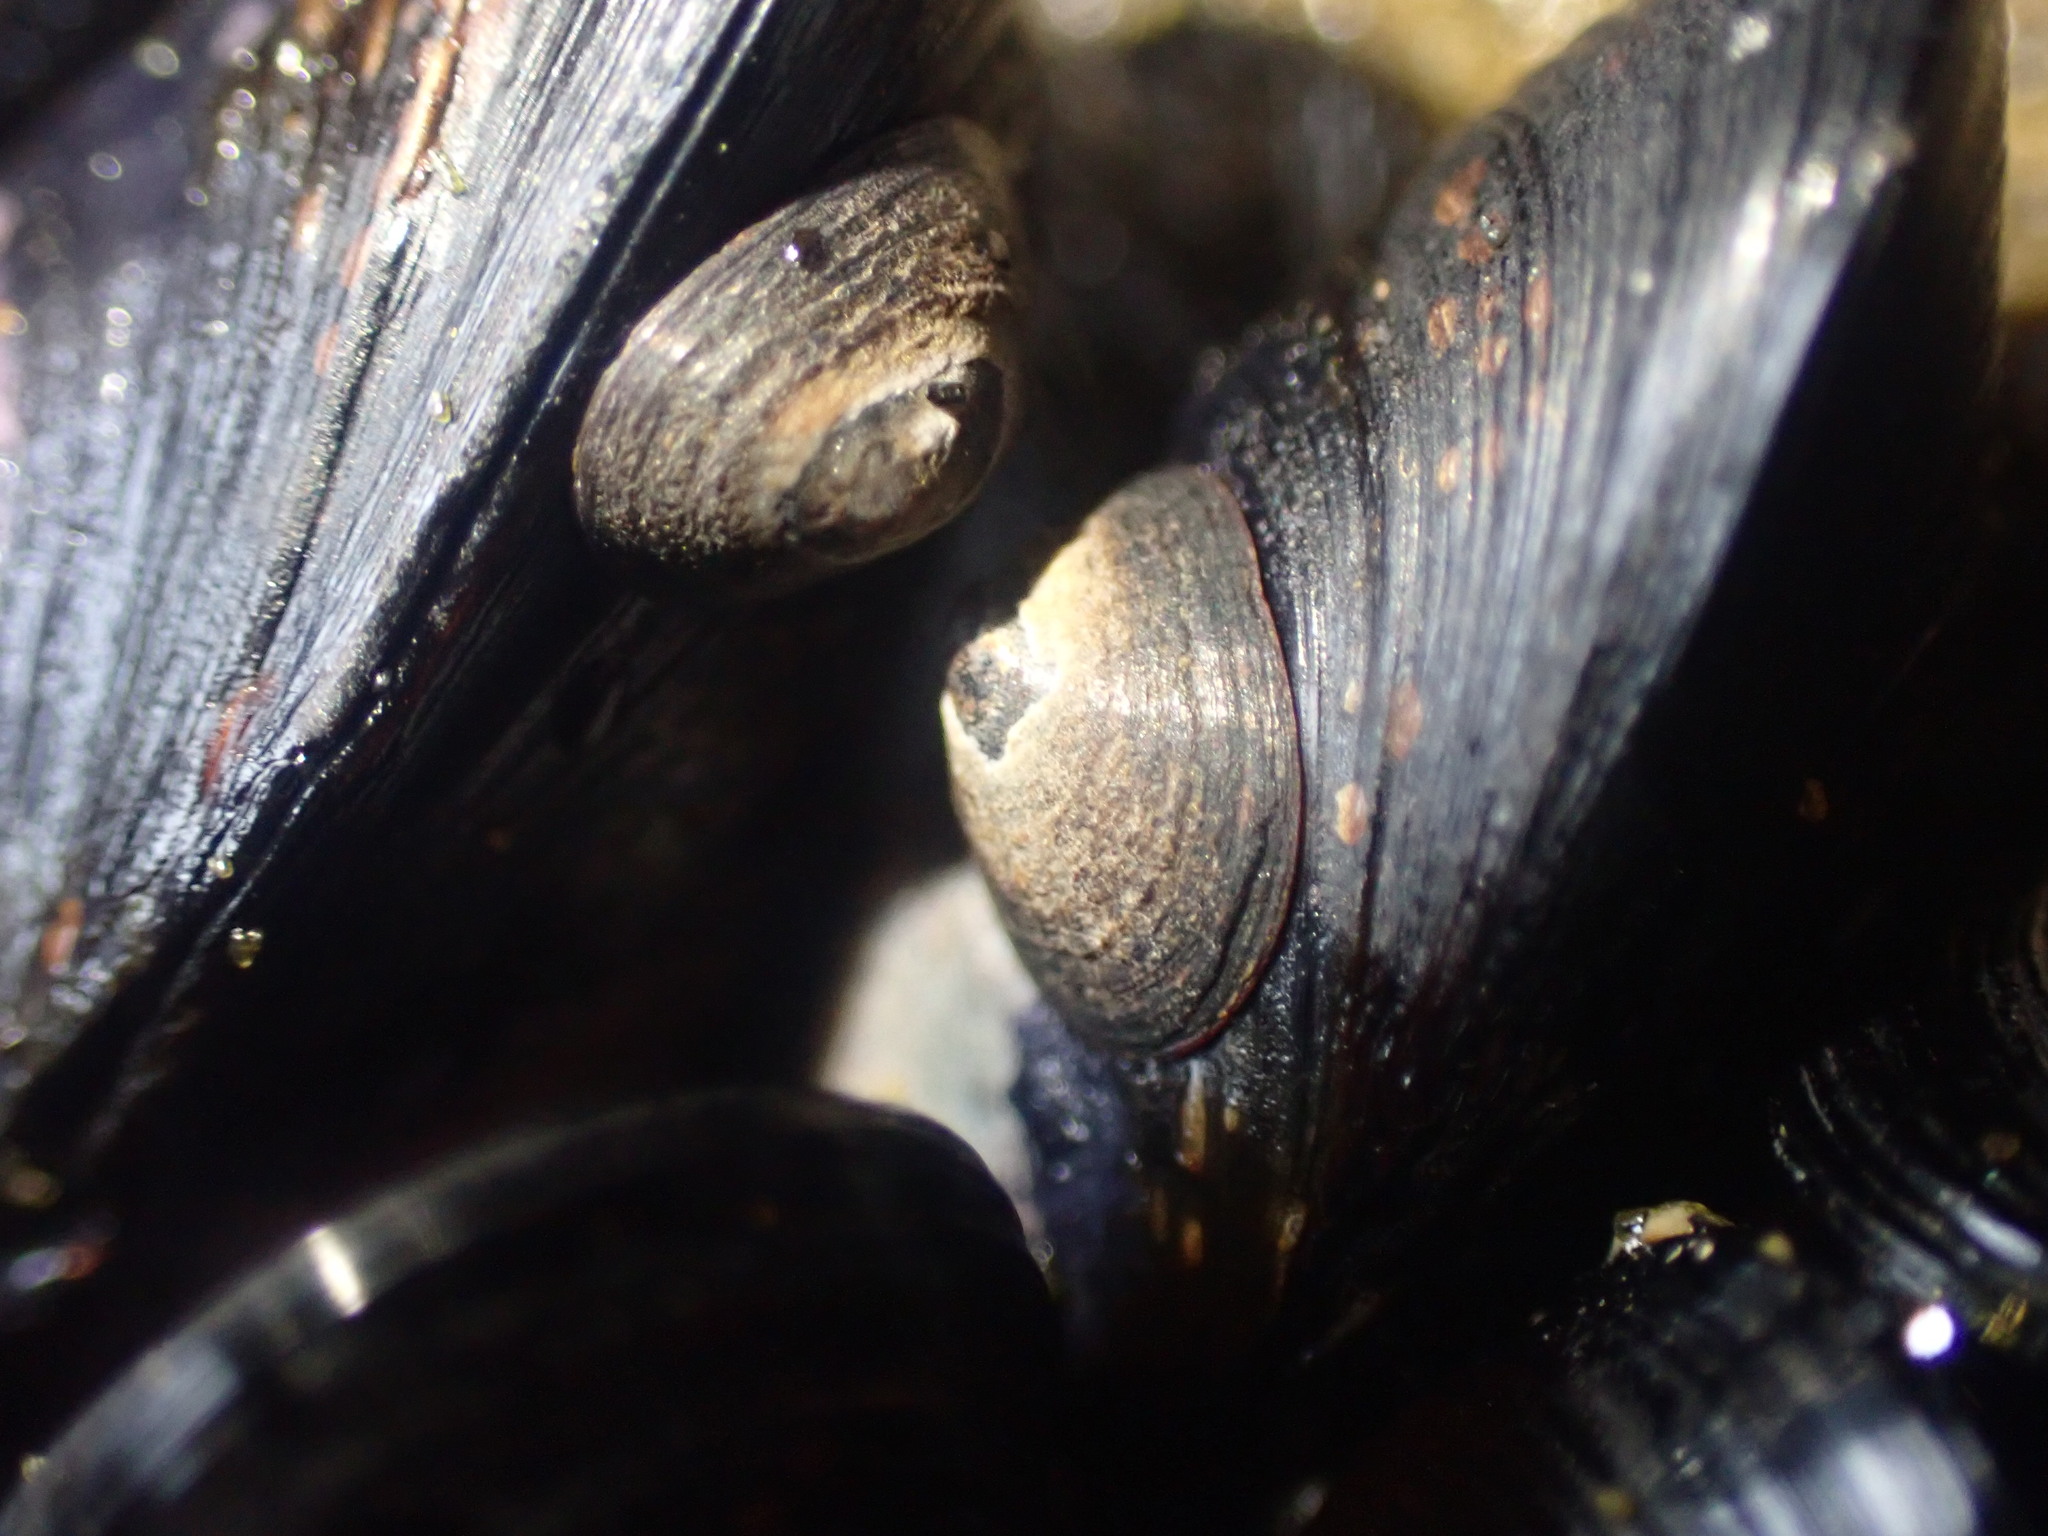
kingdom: Animalia
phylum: Mollusca
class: Gastropoda
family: Lottiidae
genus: Notoacmea
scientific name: Notoacmea parviconoidea
